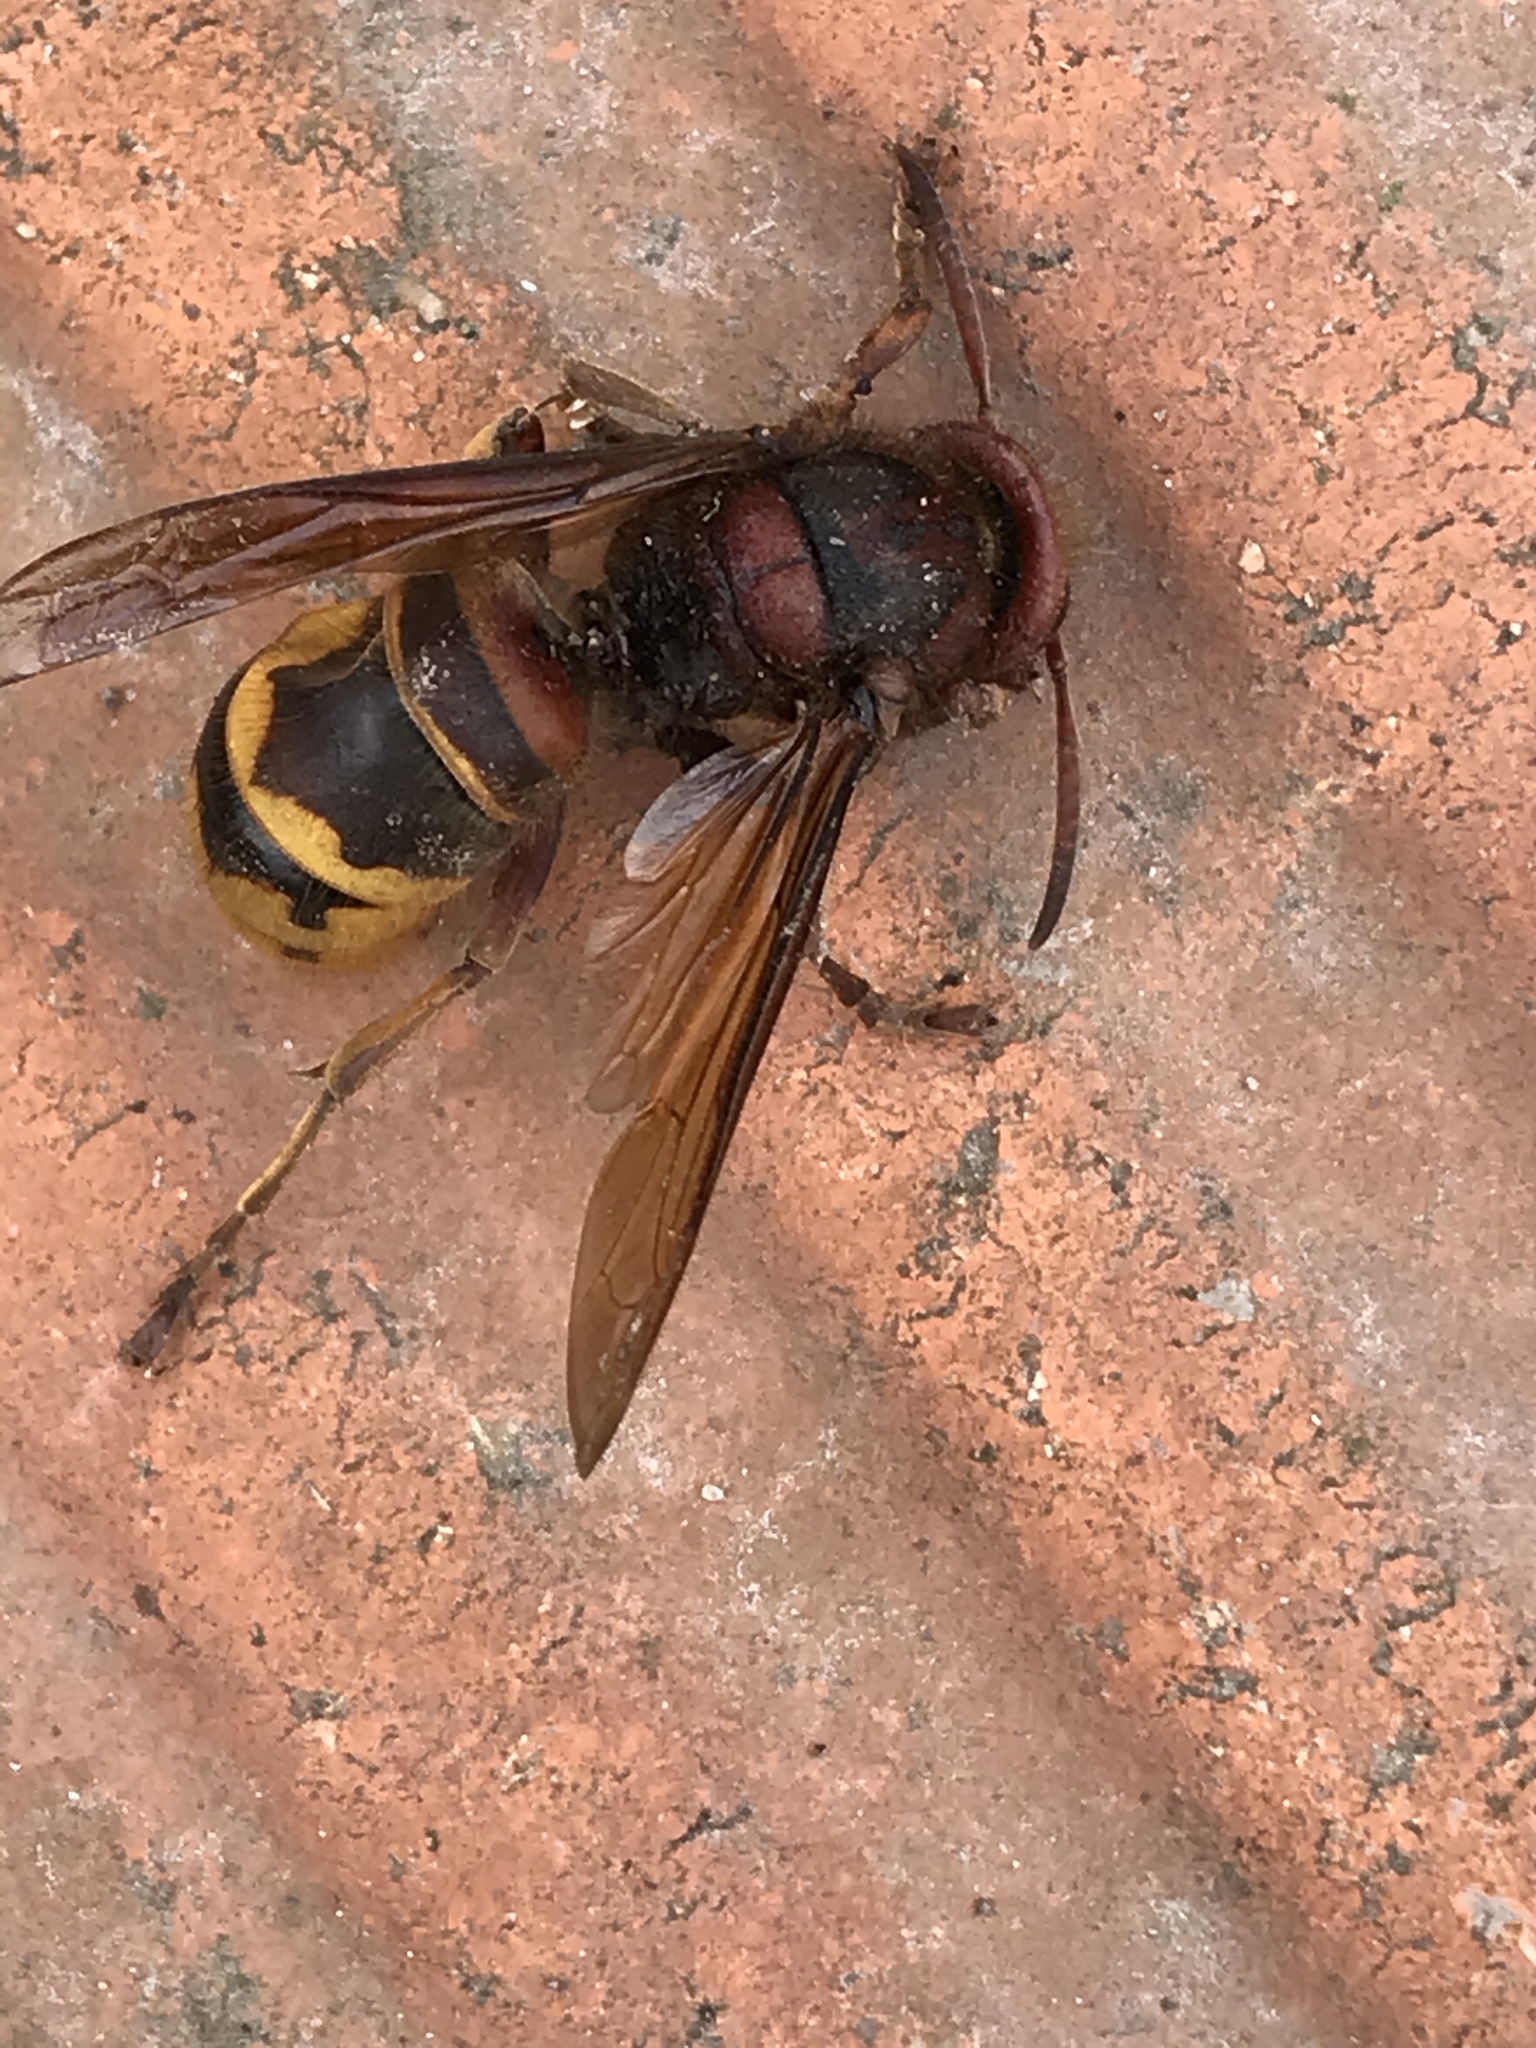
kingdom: Animalia
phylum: Arthropoda
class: Insecta
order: Hymenoptera
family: Vespidae
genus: Vespa
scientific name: Vespa crabro
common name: Hornet
